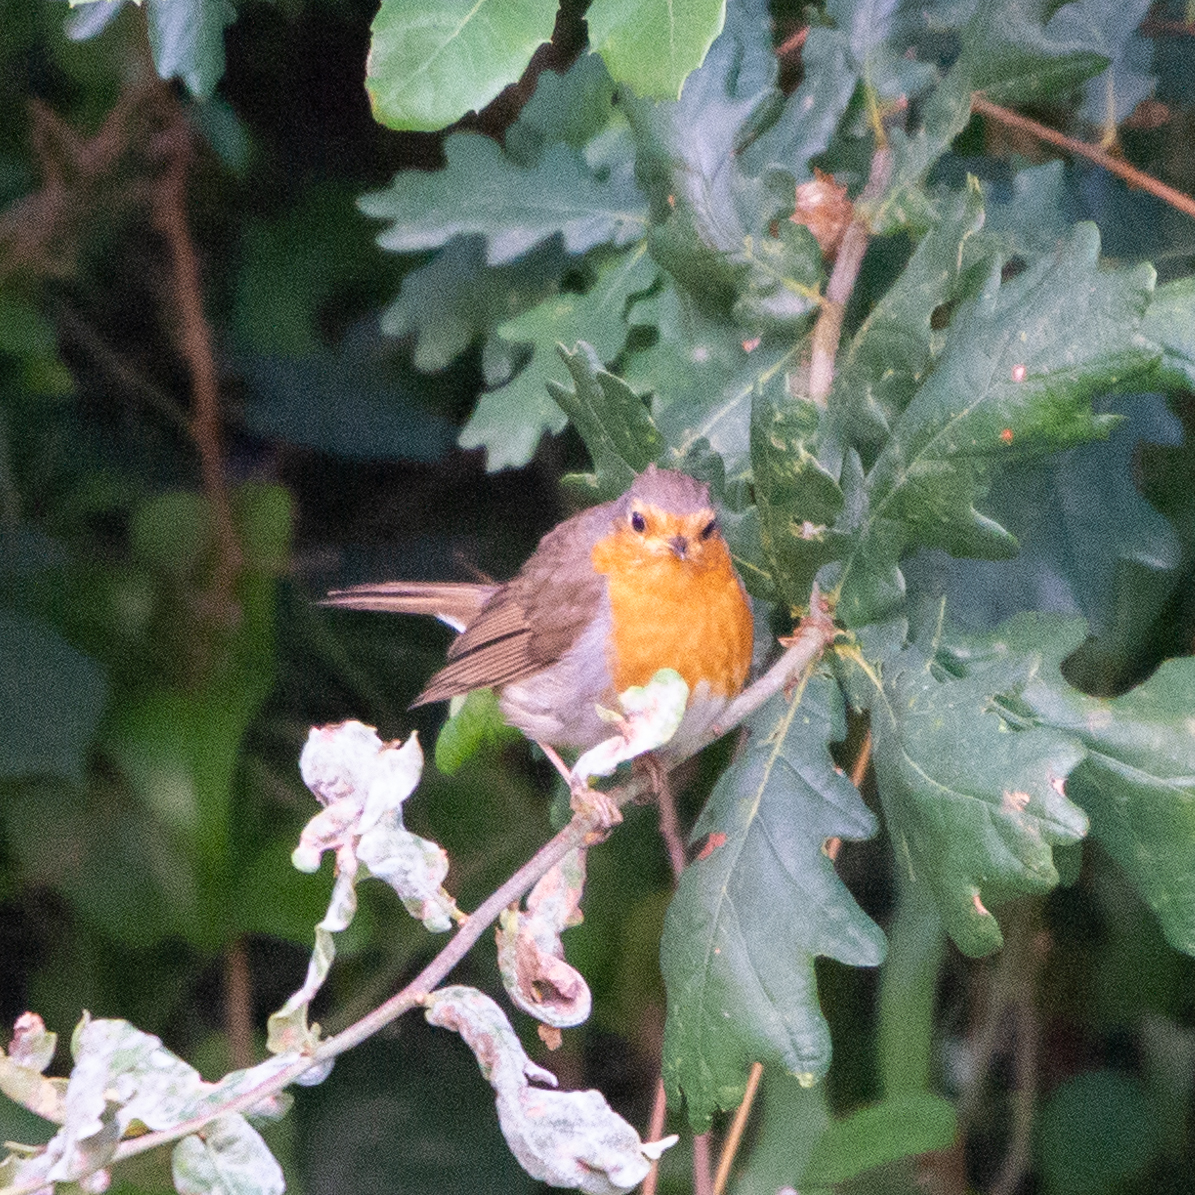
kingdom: Animalia
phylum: Chordata
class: Aves
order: Passeriformes
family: Muscicapidae
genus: Erithacus
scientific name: Erithacus rubecula
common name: European robin
